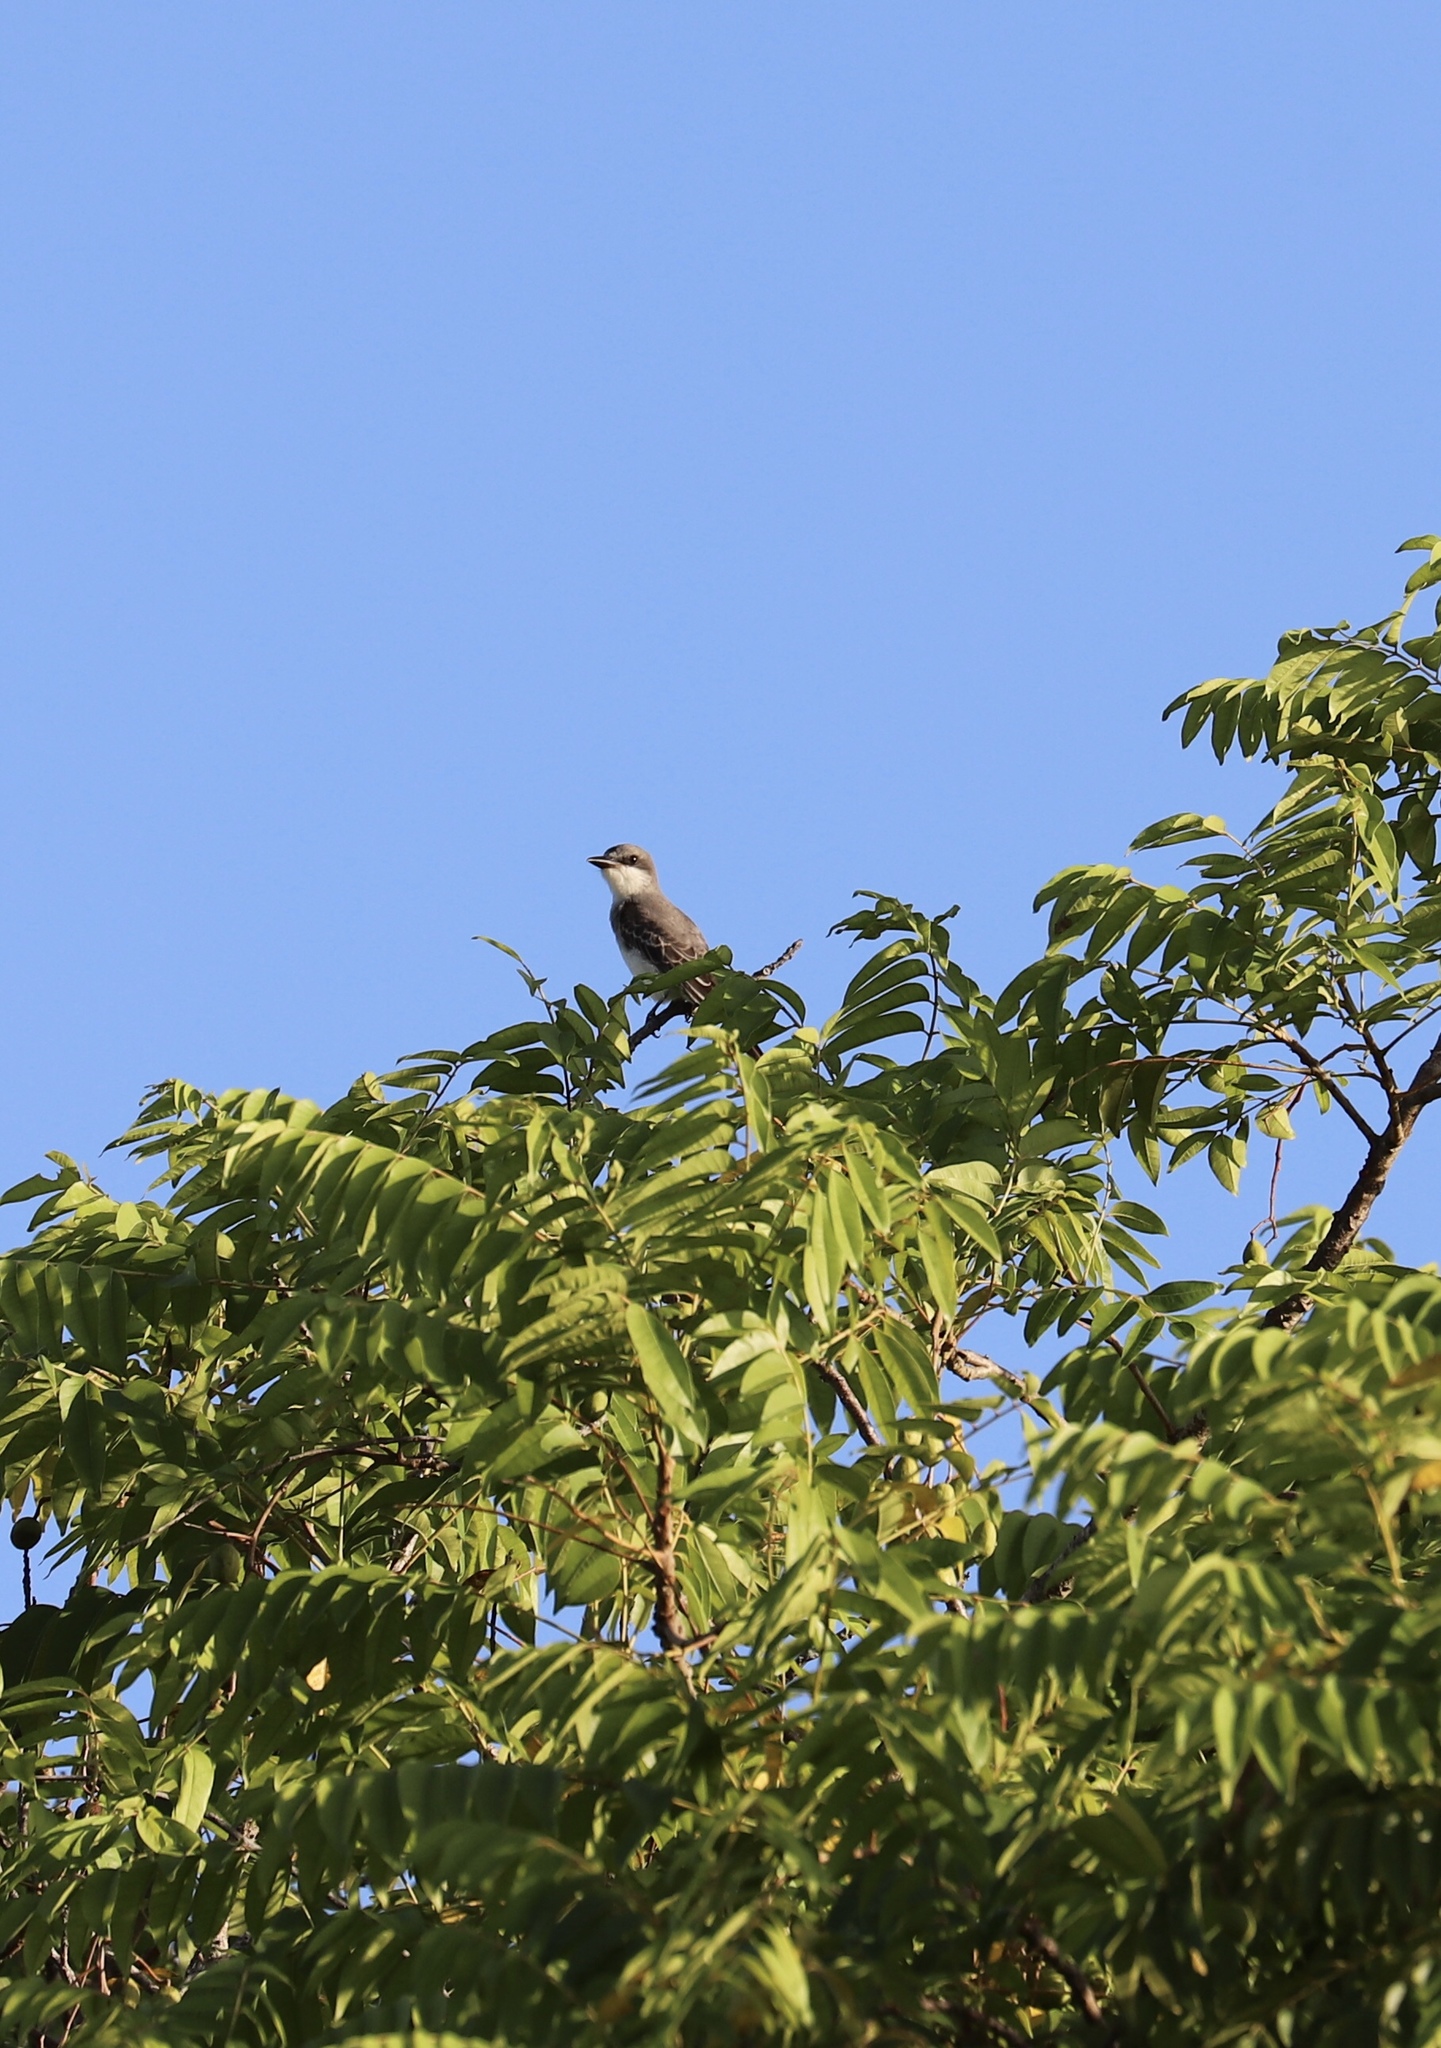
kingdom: Animalia
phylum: Chordata
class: Aves
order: Passeriformes
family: Tyrannidae
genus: Tyrannus
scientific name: Tyrannus dominicensis
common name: Gray kingbird
